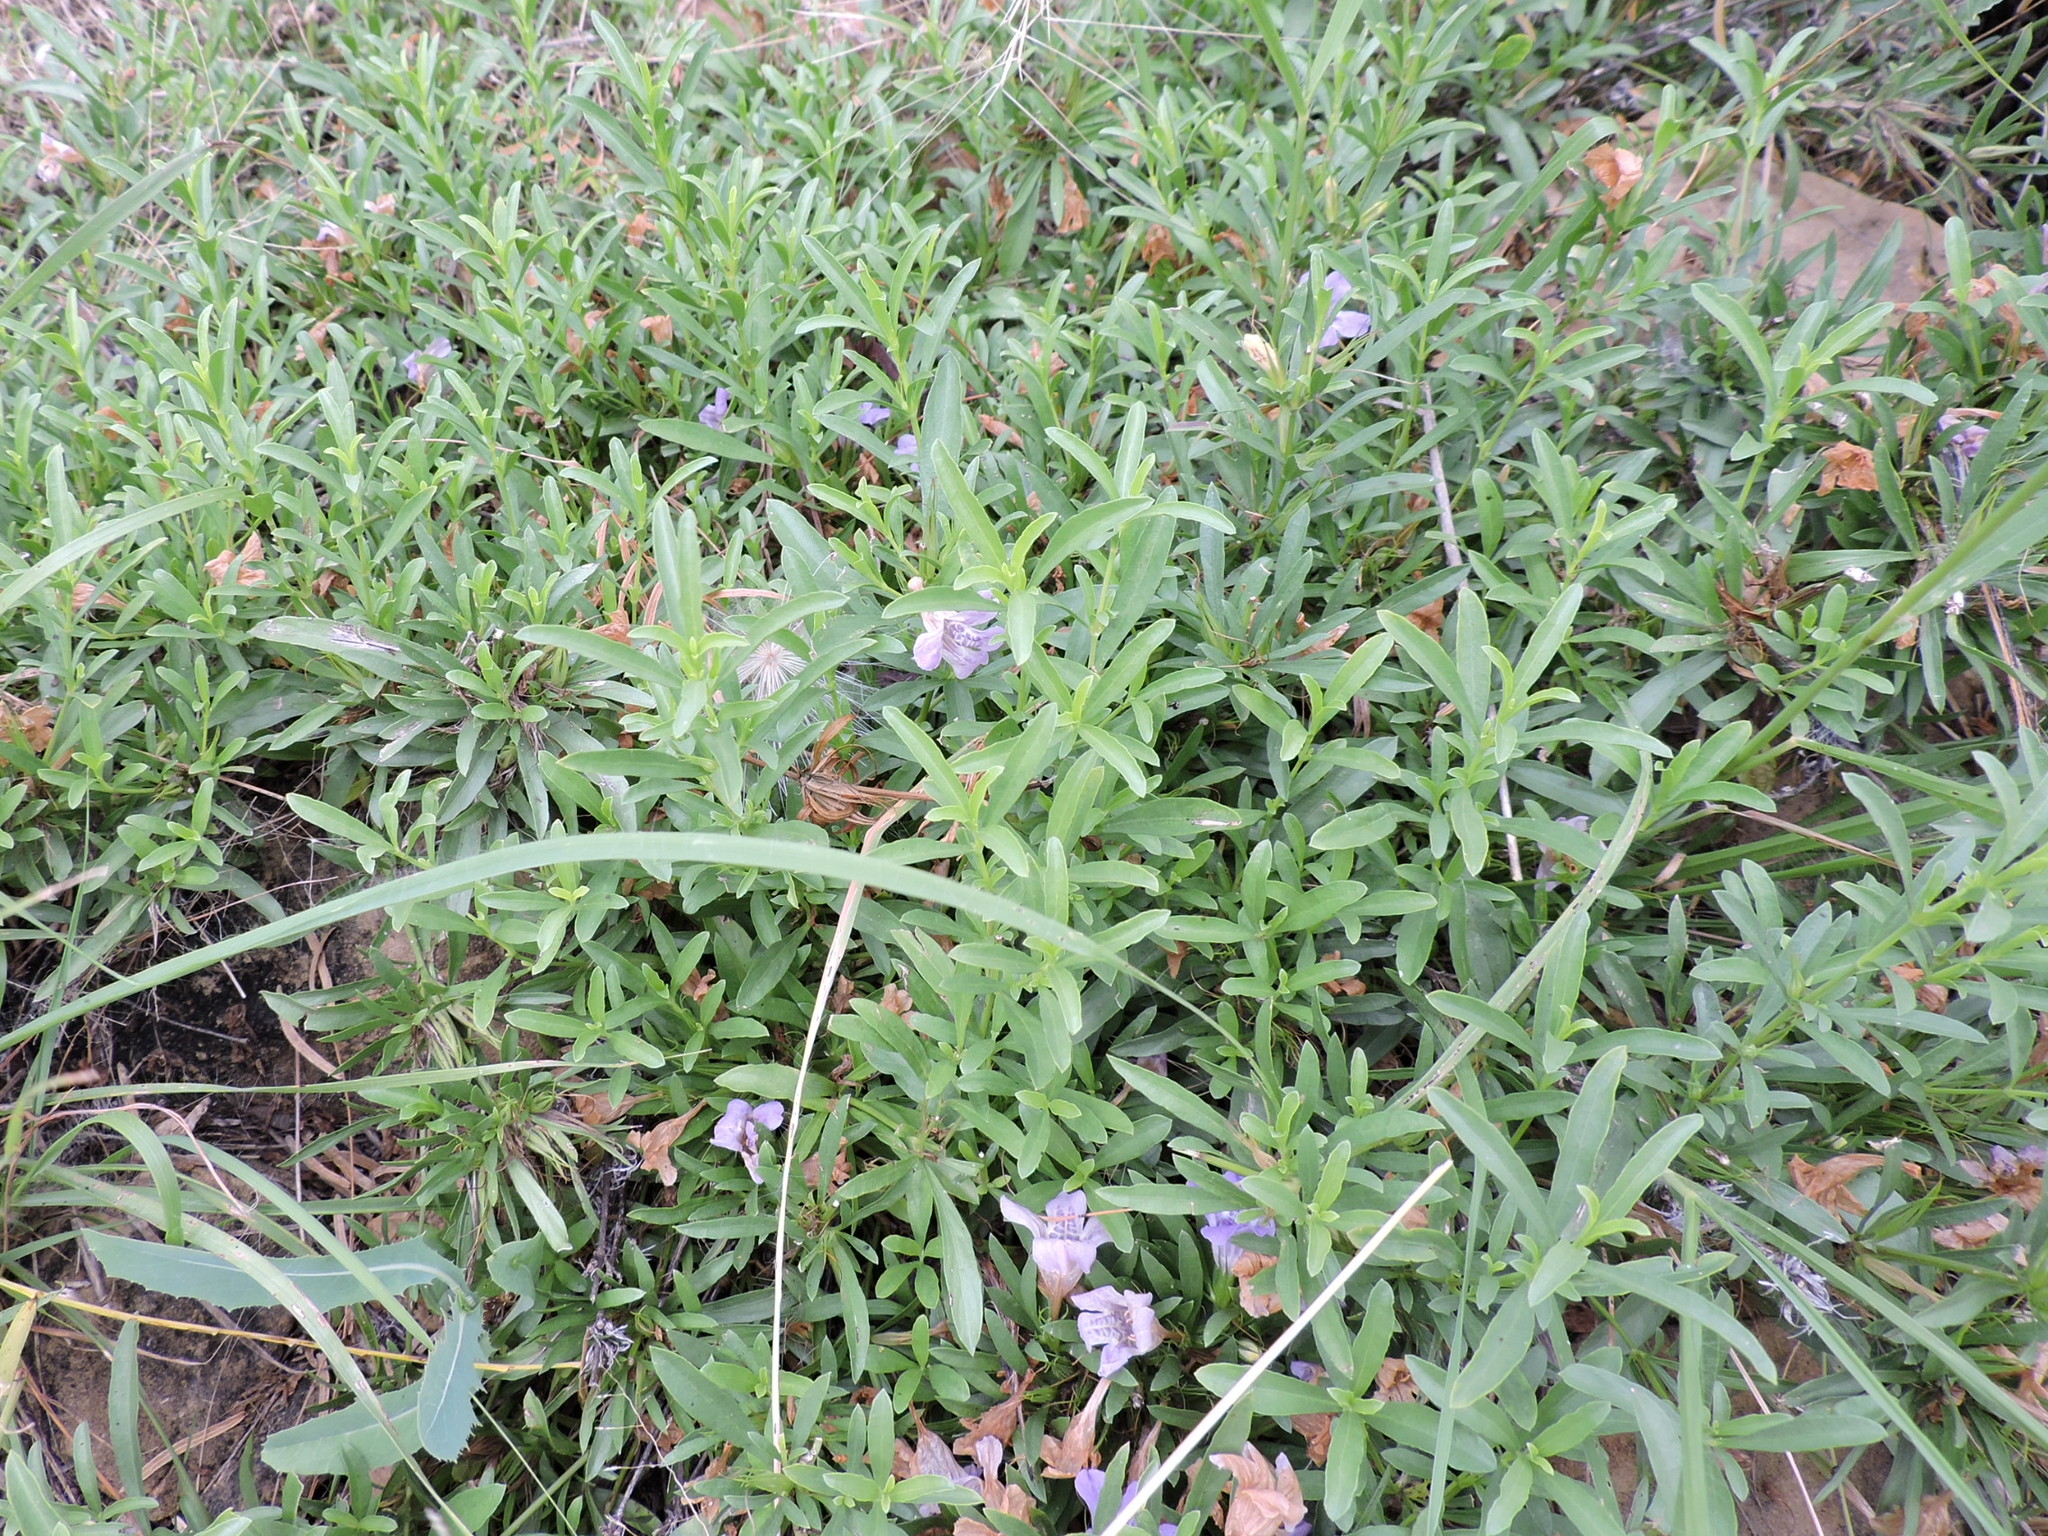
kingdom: Plantae
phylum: Tracheophyta
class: Magnoliopsida
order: Lamiales
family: Acanthaceae
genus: Dyschoriste
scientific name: Dyschoriste linearis
